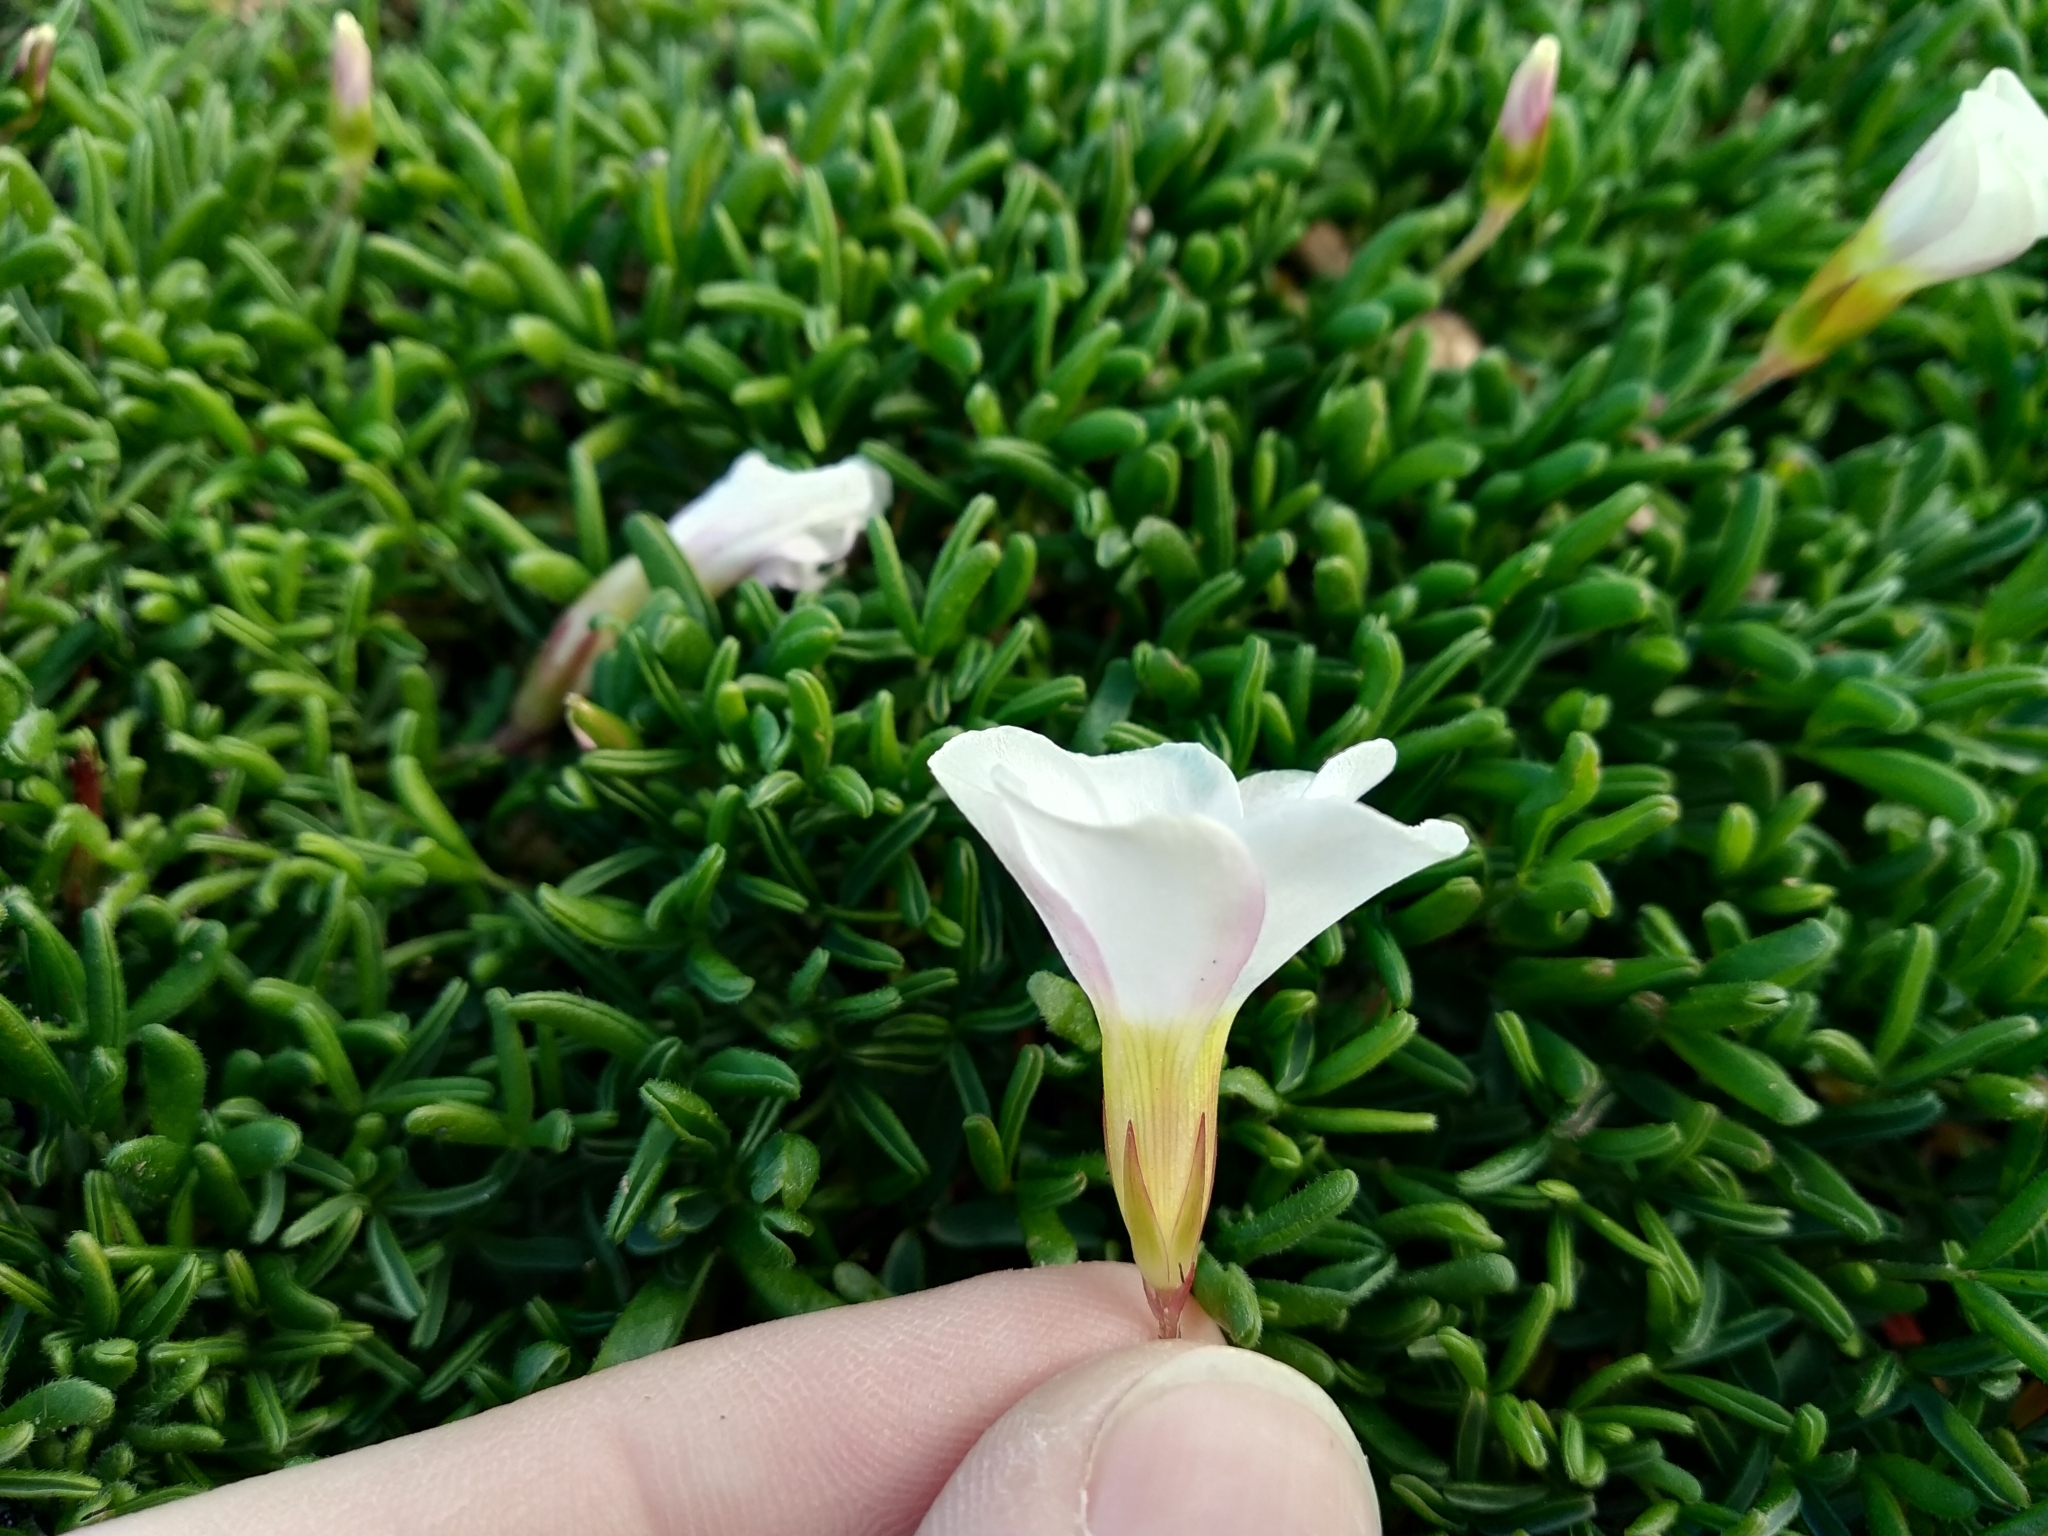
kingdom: Plantae
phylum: Tracheophyta
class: Magnoliopsida
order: Oxalidales
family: Oxalidaceae
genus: Oxalis
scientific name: Oxalis glabra
